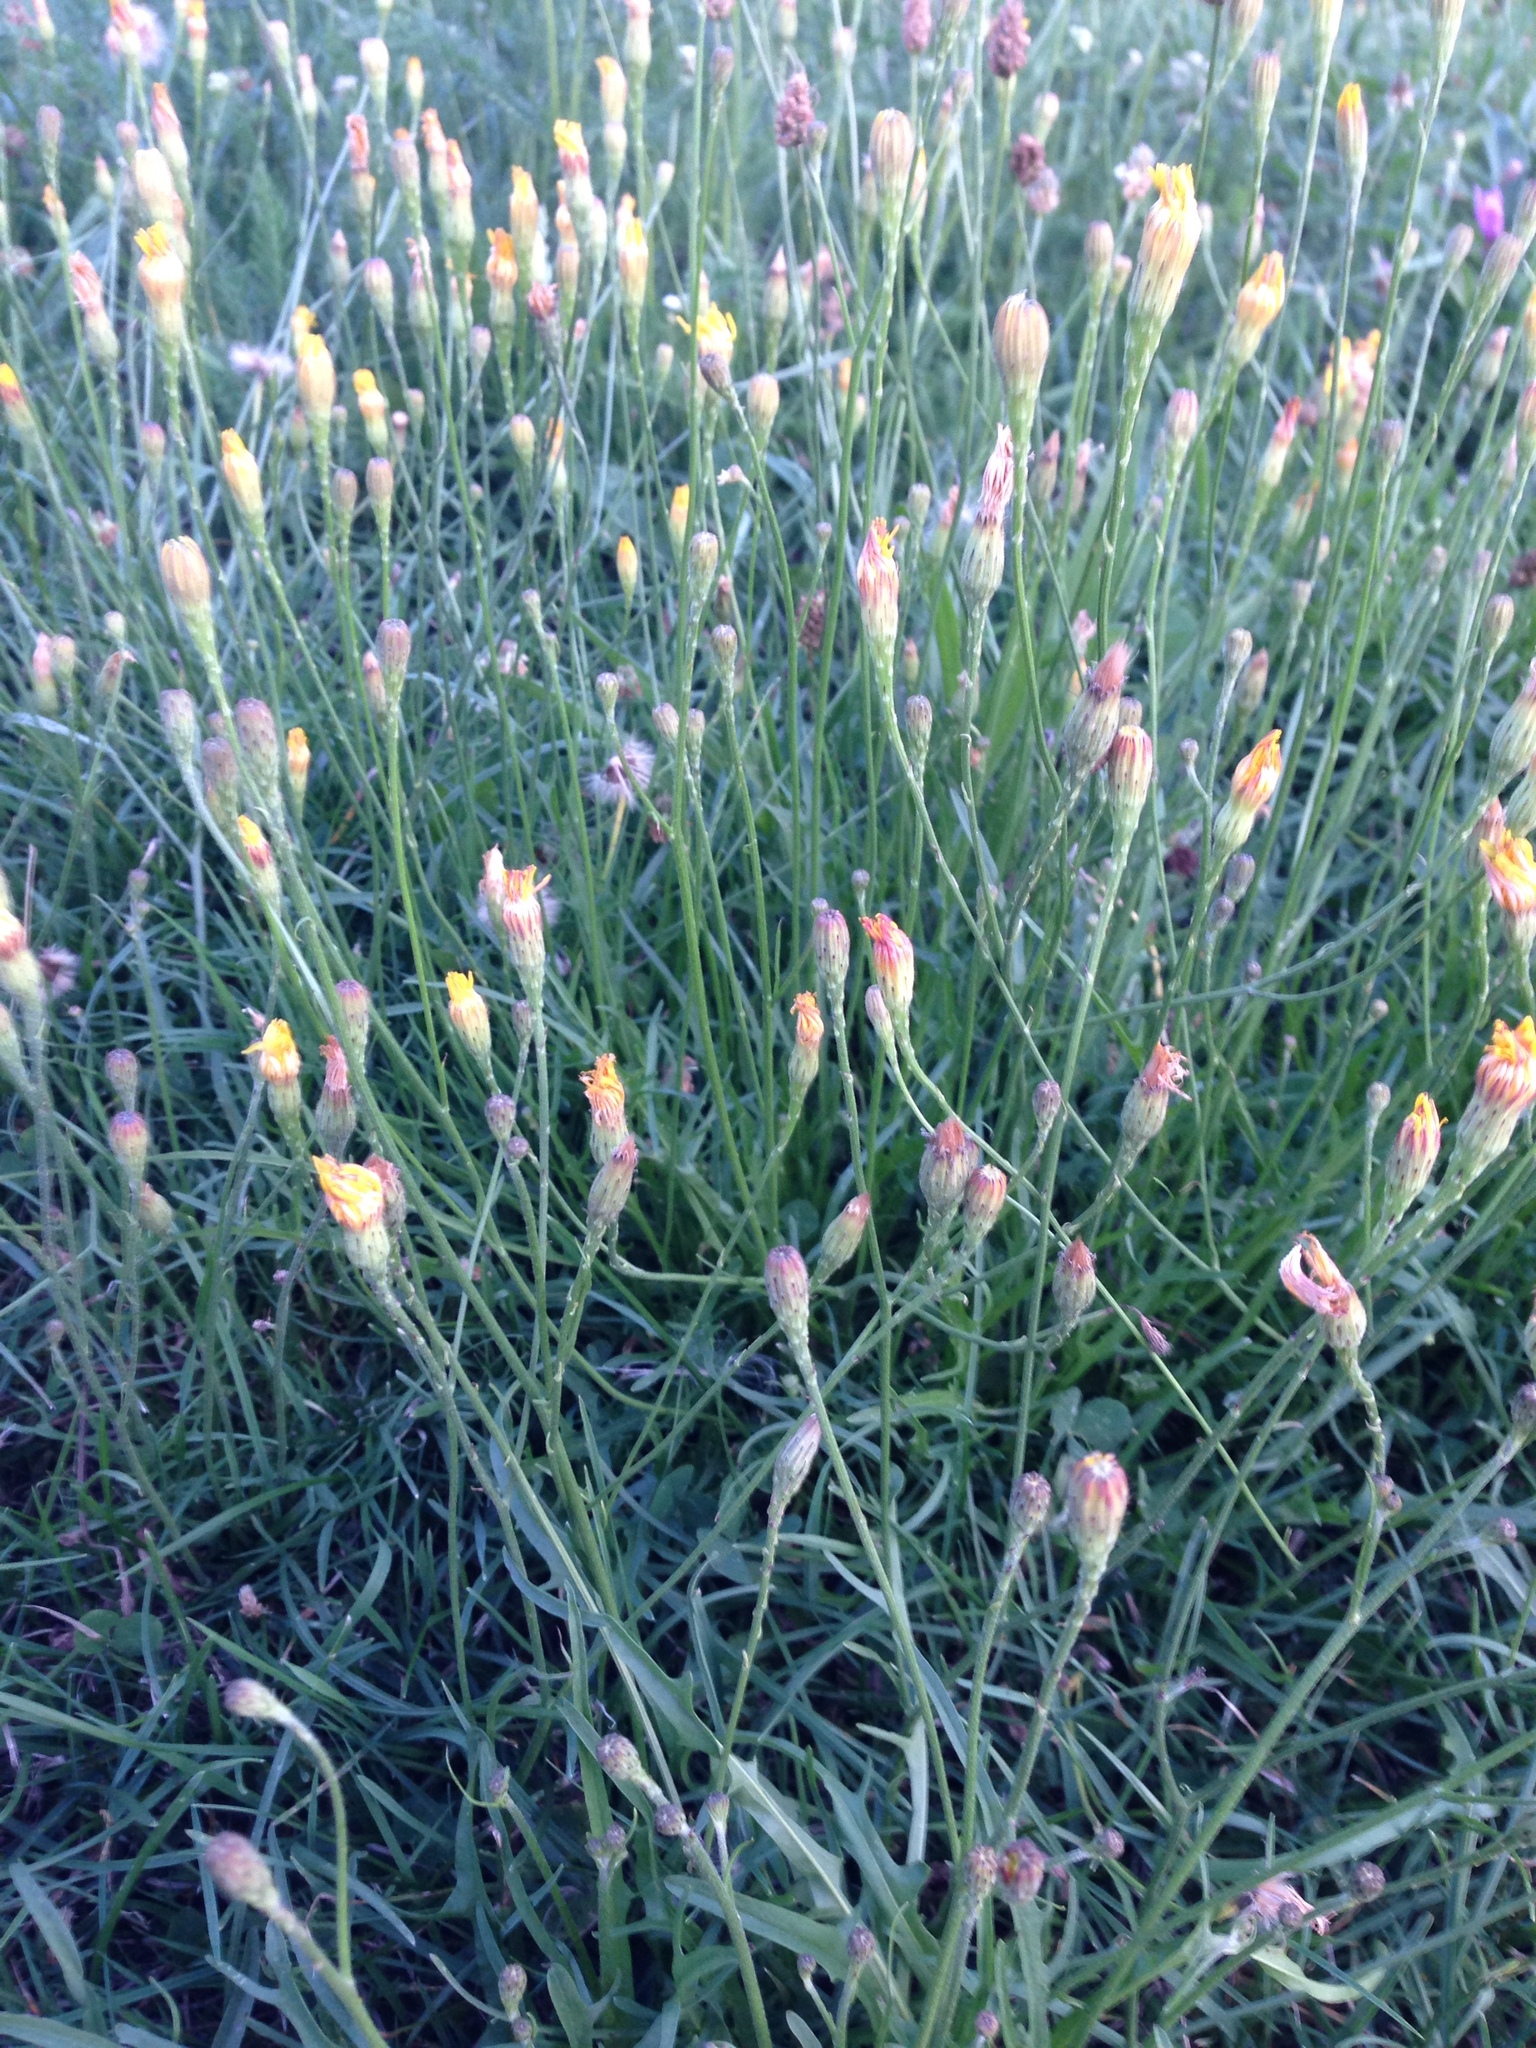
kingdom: Plantae
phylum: Tracheophyta
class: Magnoliopsida
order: Asterales
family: Asteraceae
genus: Scorzoneroides
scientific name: Scorzoneroides autumnalis
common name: Autumn hawkbit
